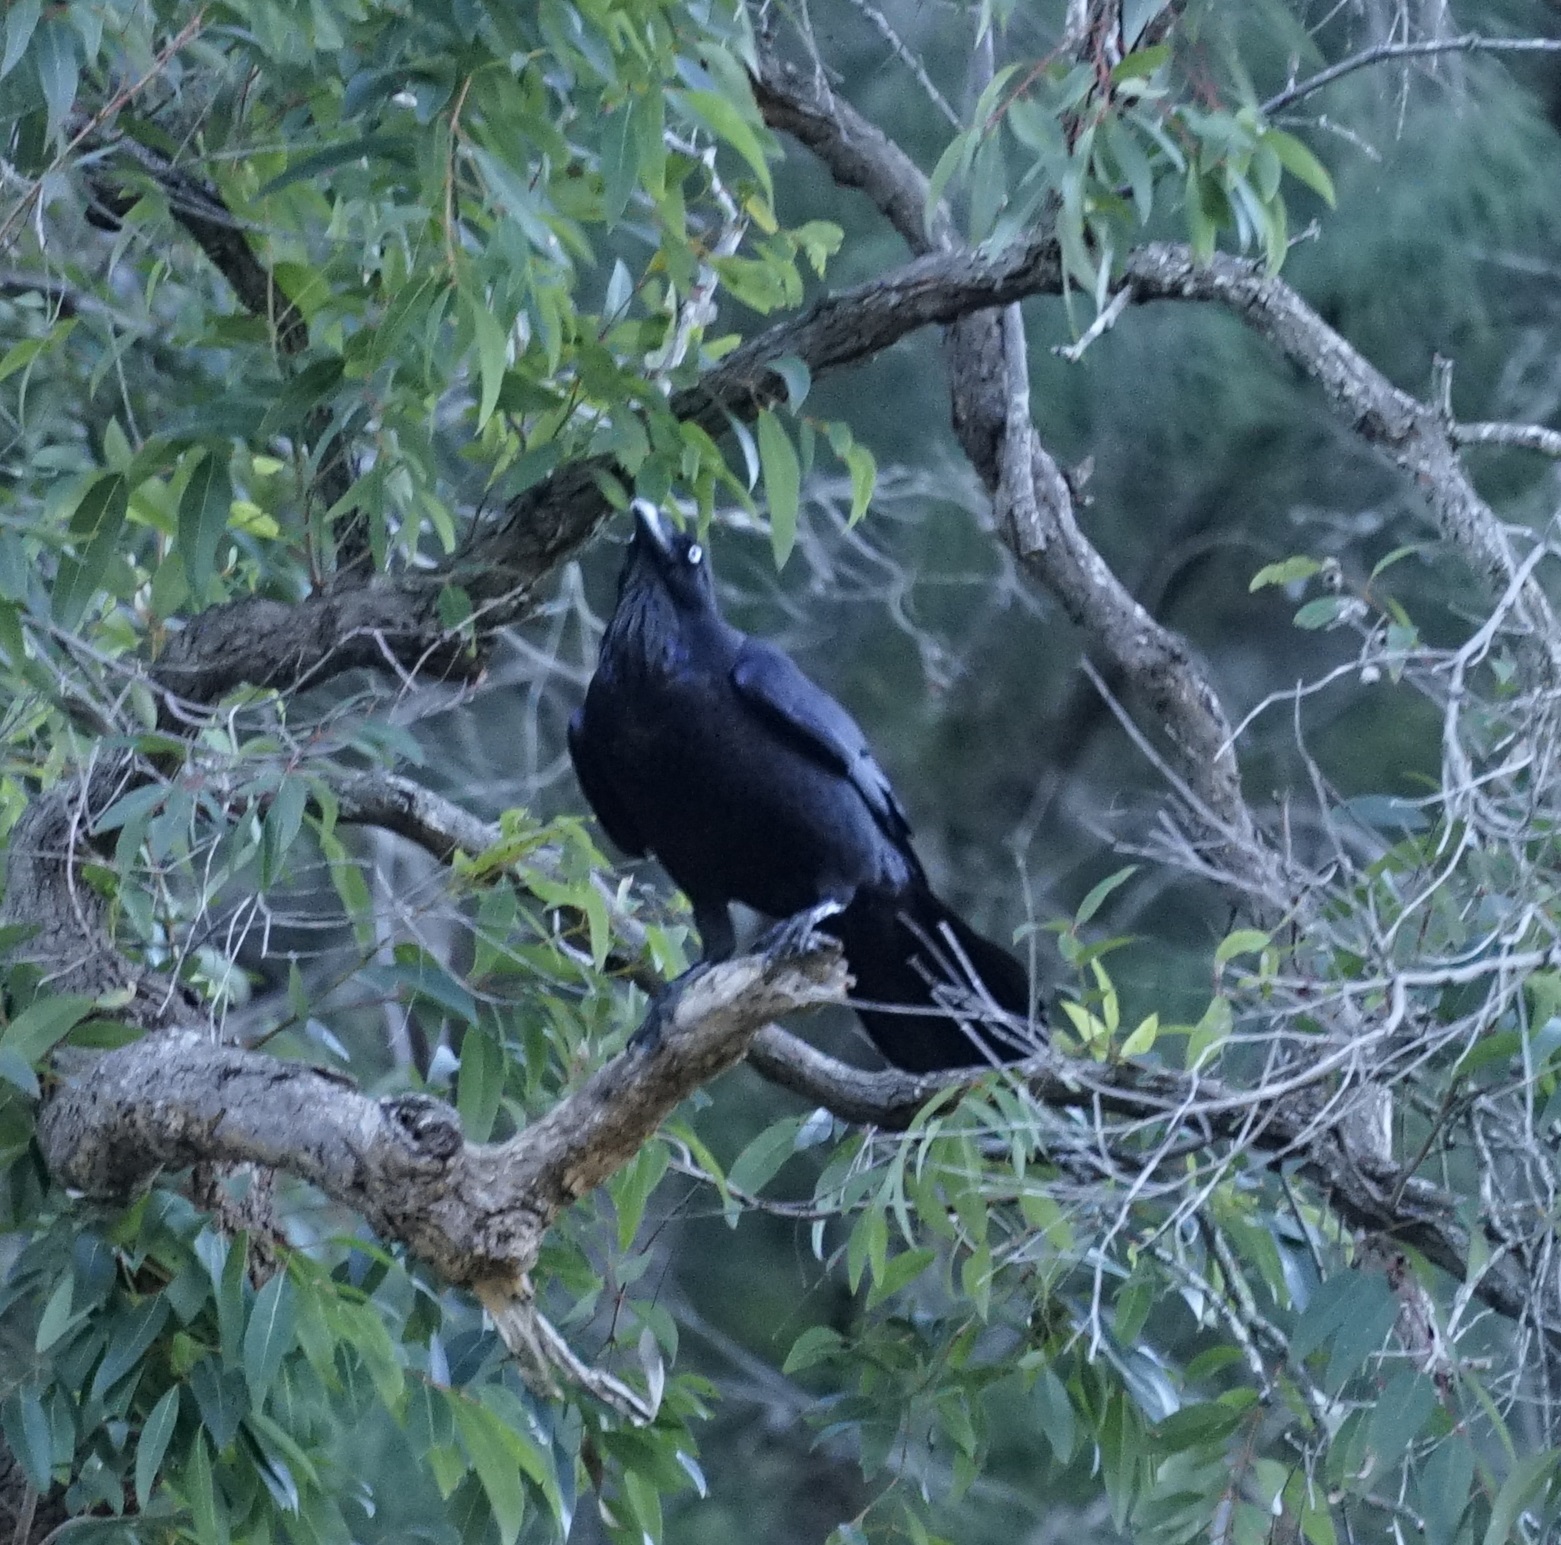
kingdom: Animalia
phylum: Chordata
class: Aves
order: Passeriformes
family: Corvidae
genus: Corvus
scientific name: Corvus coronoides
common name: Australian raven
